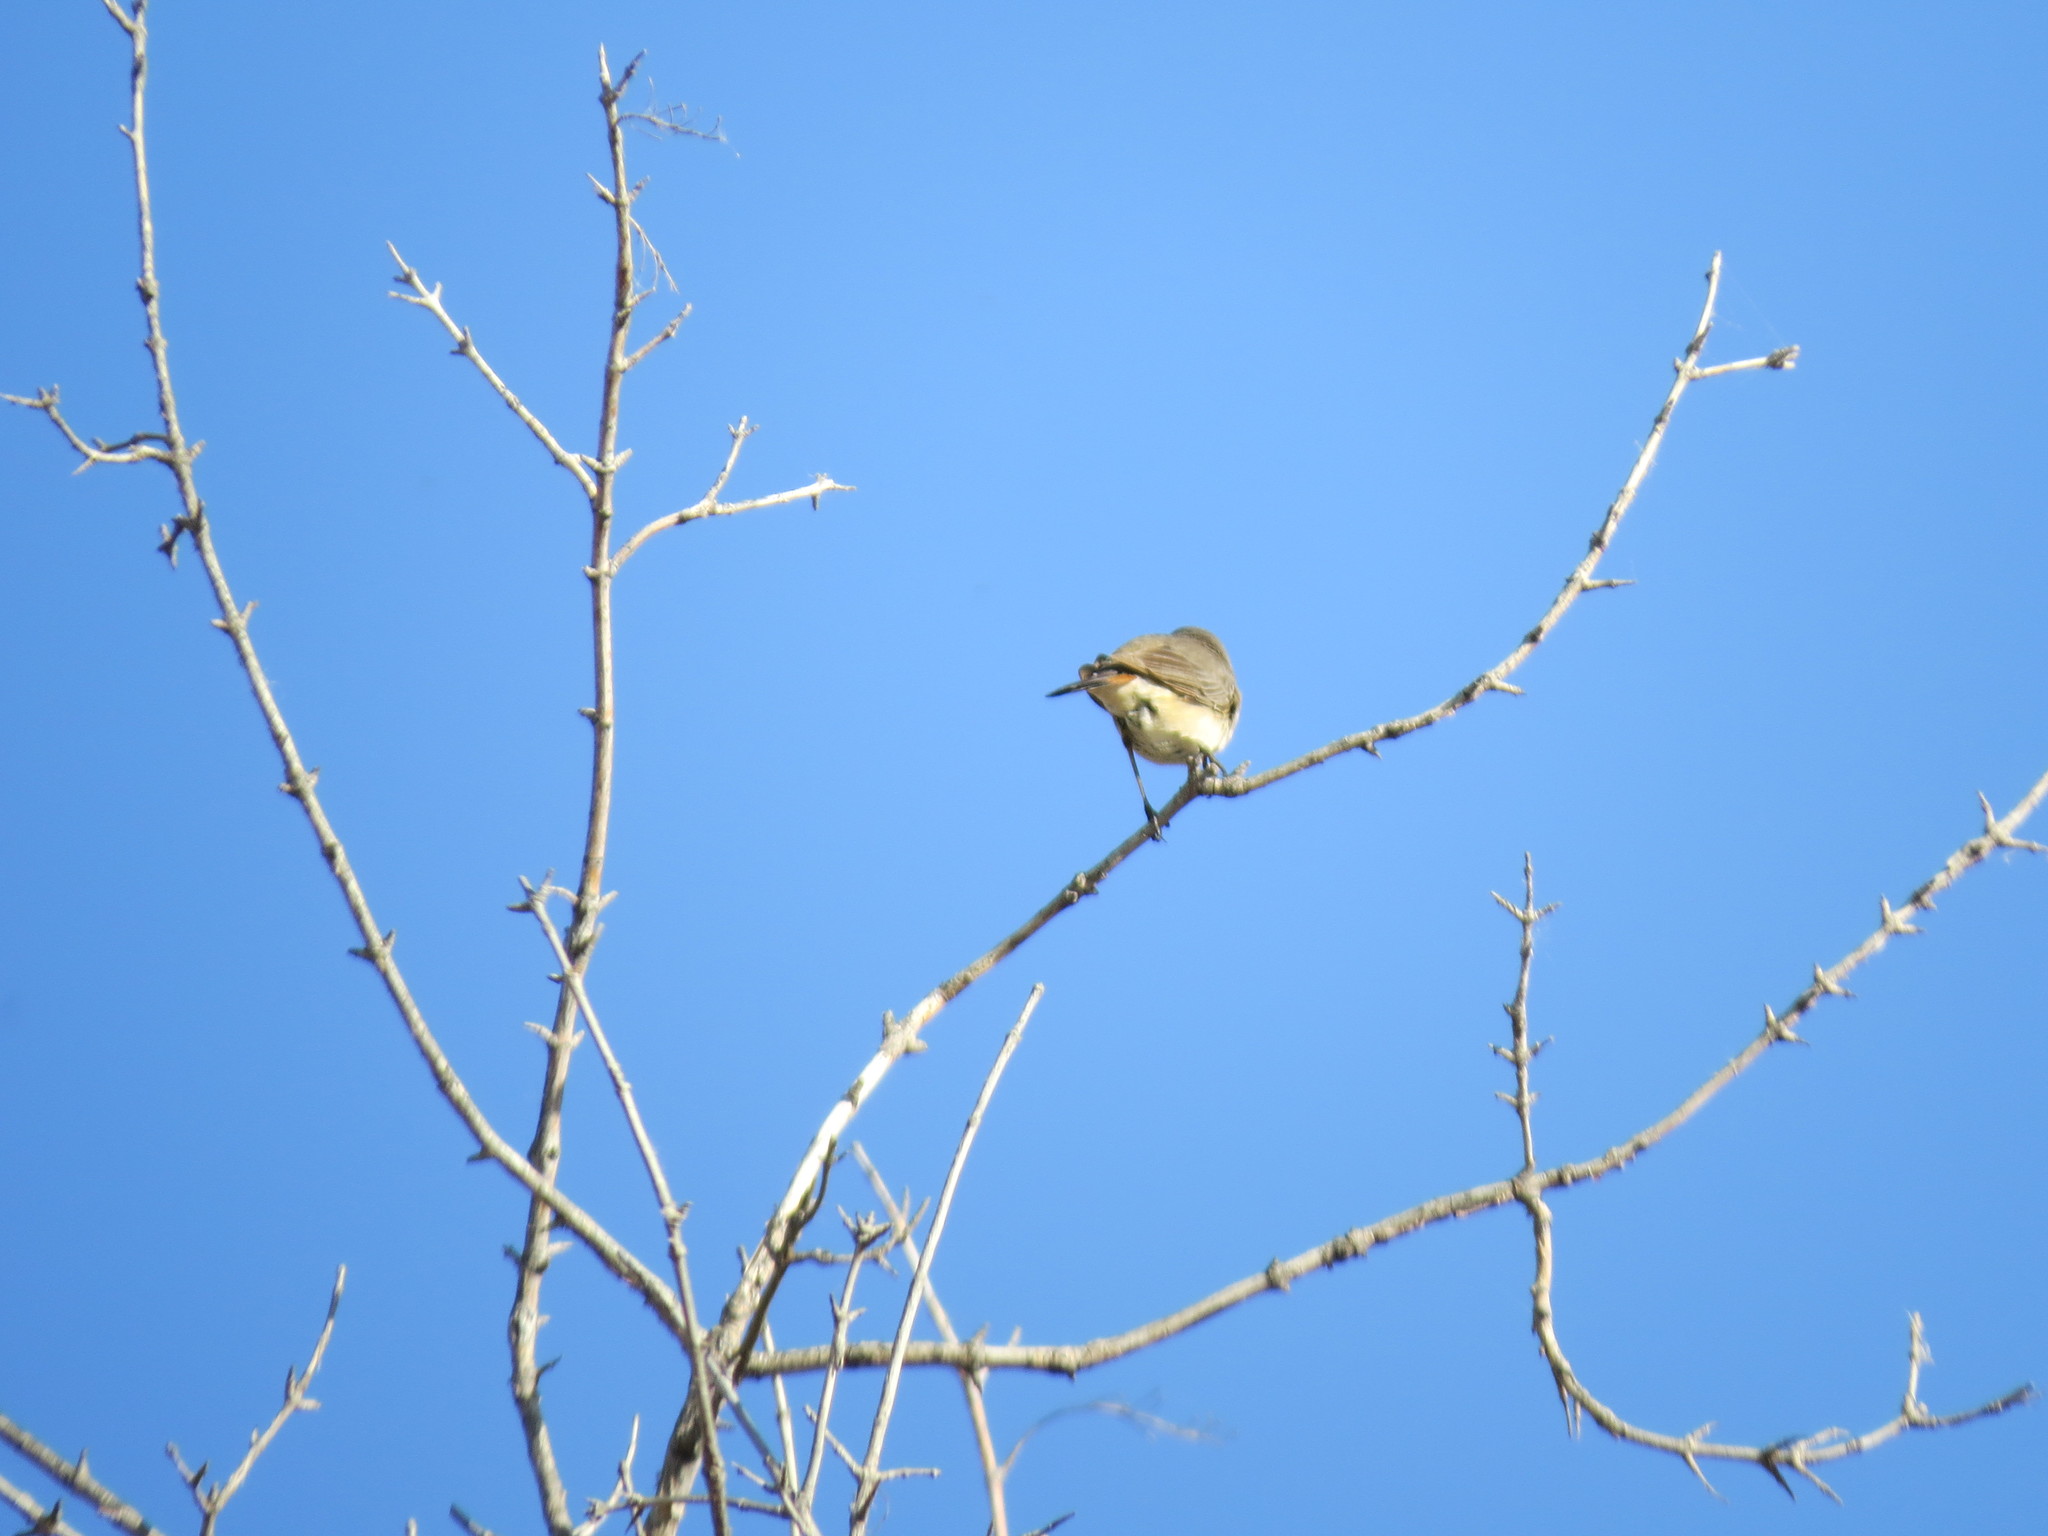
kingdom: Animalia
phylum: Chordata
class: Aves
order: Passeriformes
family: Muscicapidae
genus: Luscinia
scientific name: Luscinia svecica
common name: Bluethroat
